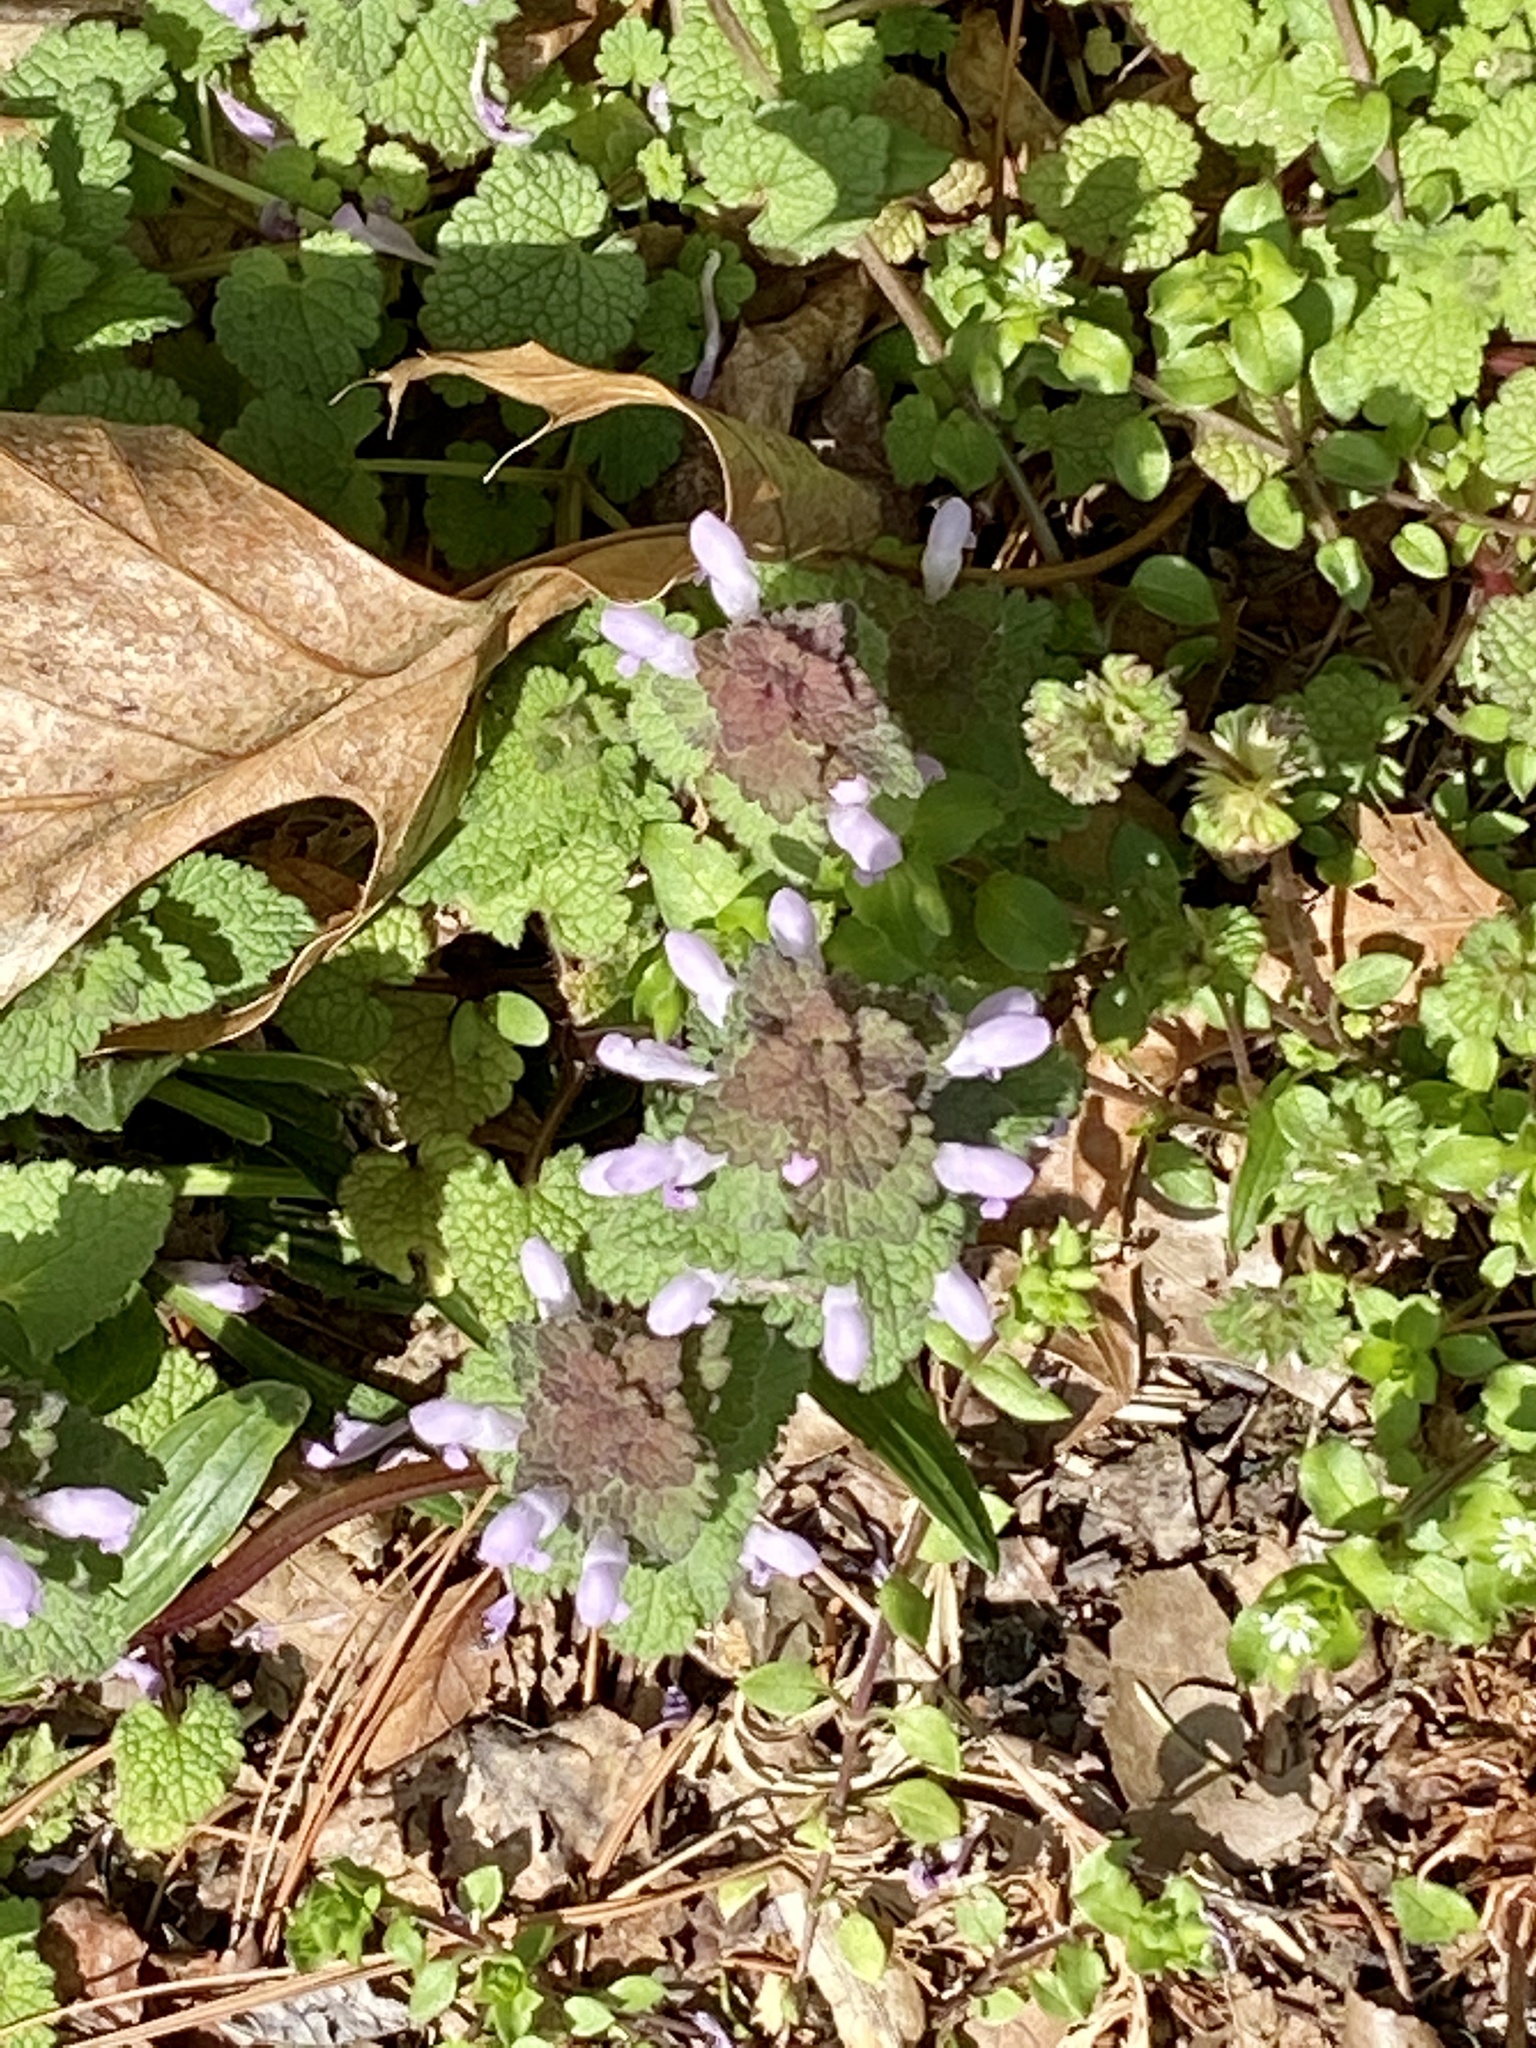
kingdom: Plantae
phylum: Tracheophyta
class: Magnoliopsida
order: Lamiales
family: Lamiaceae
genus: Lamium
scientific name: Lamium purpureum
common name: Red dead-nettle
